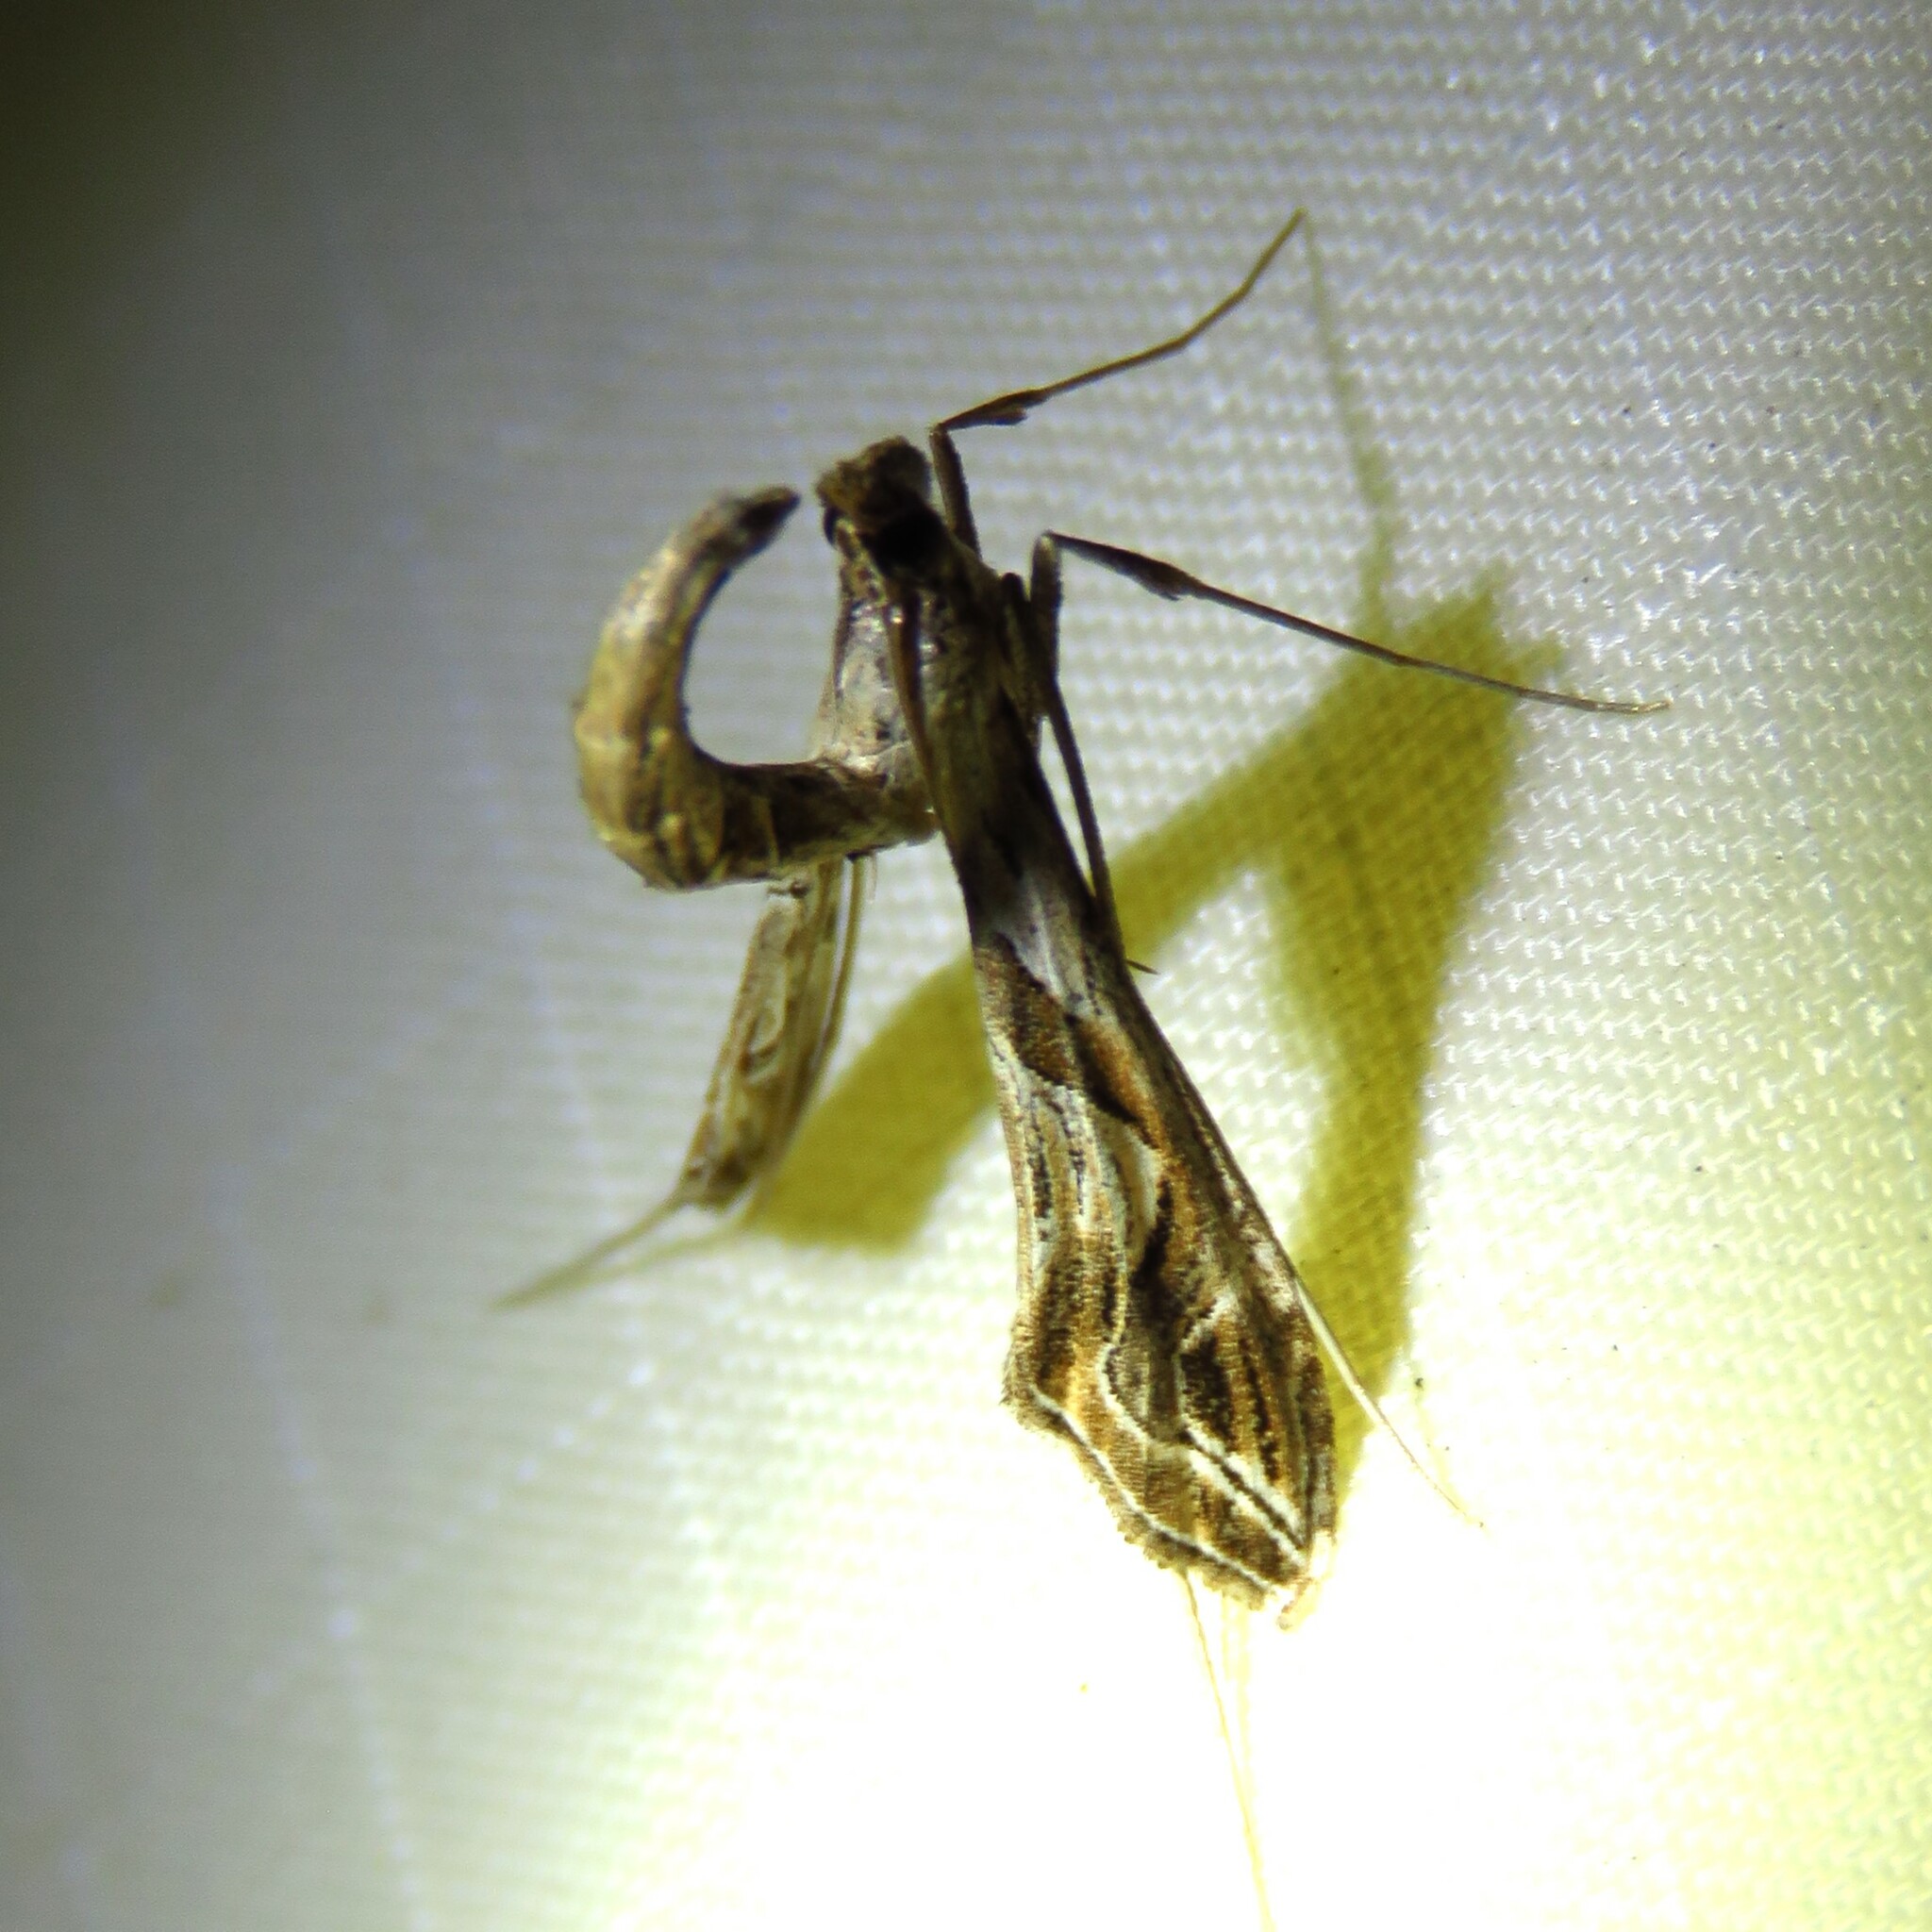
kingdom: Animalia
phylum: Arthropoda
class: Insecta
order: Lepidoptera
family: Crambidae
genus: Lineodes
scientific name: Lineodes integra
